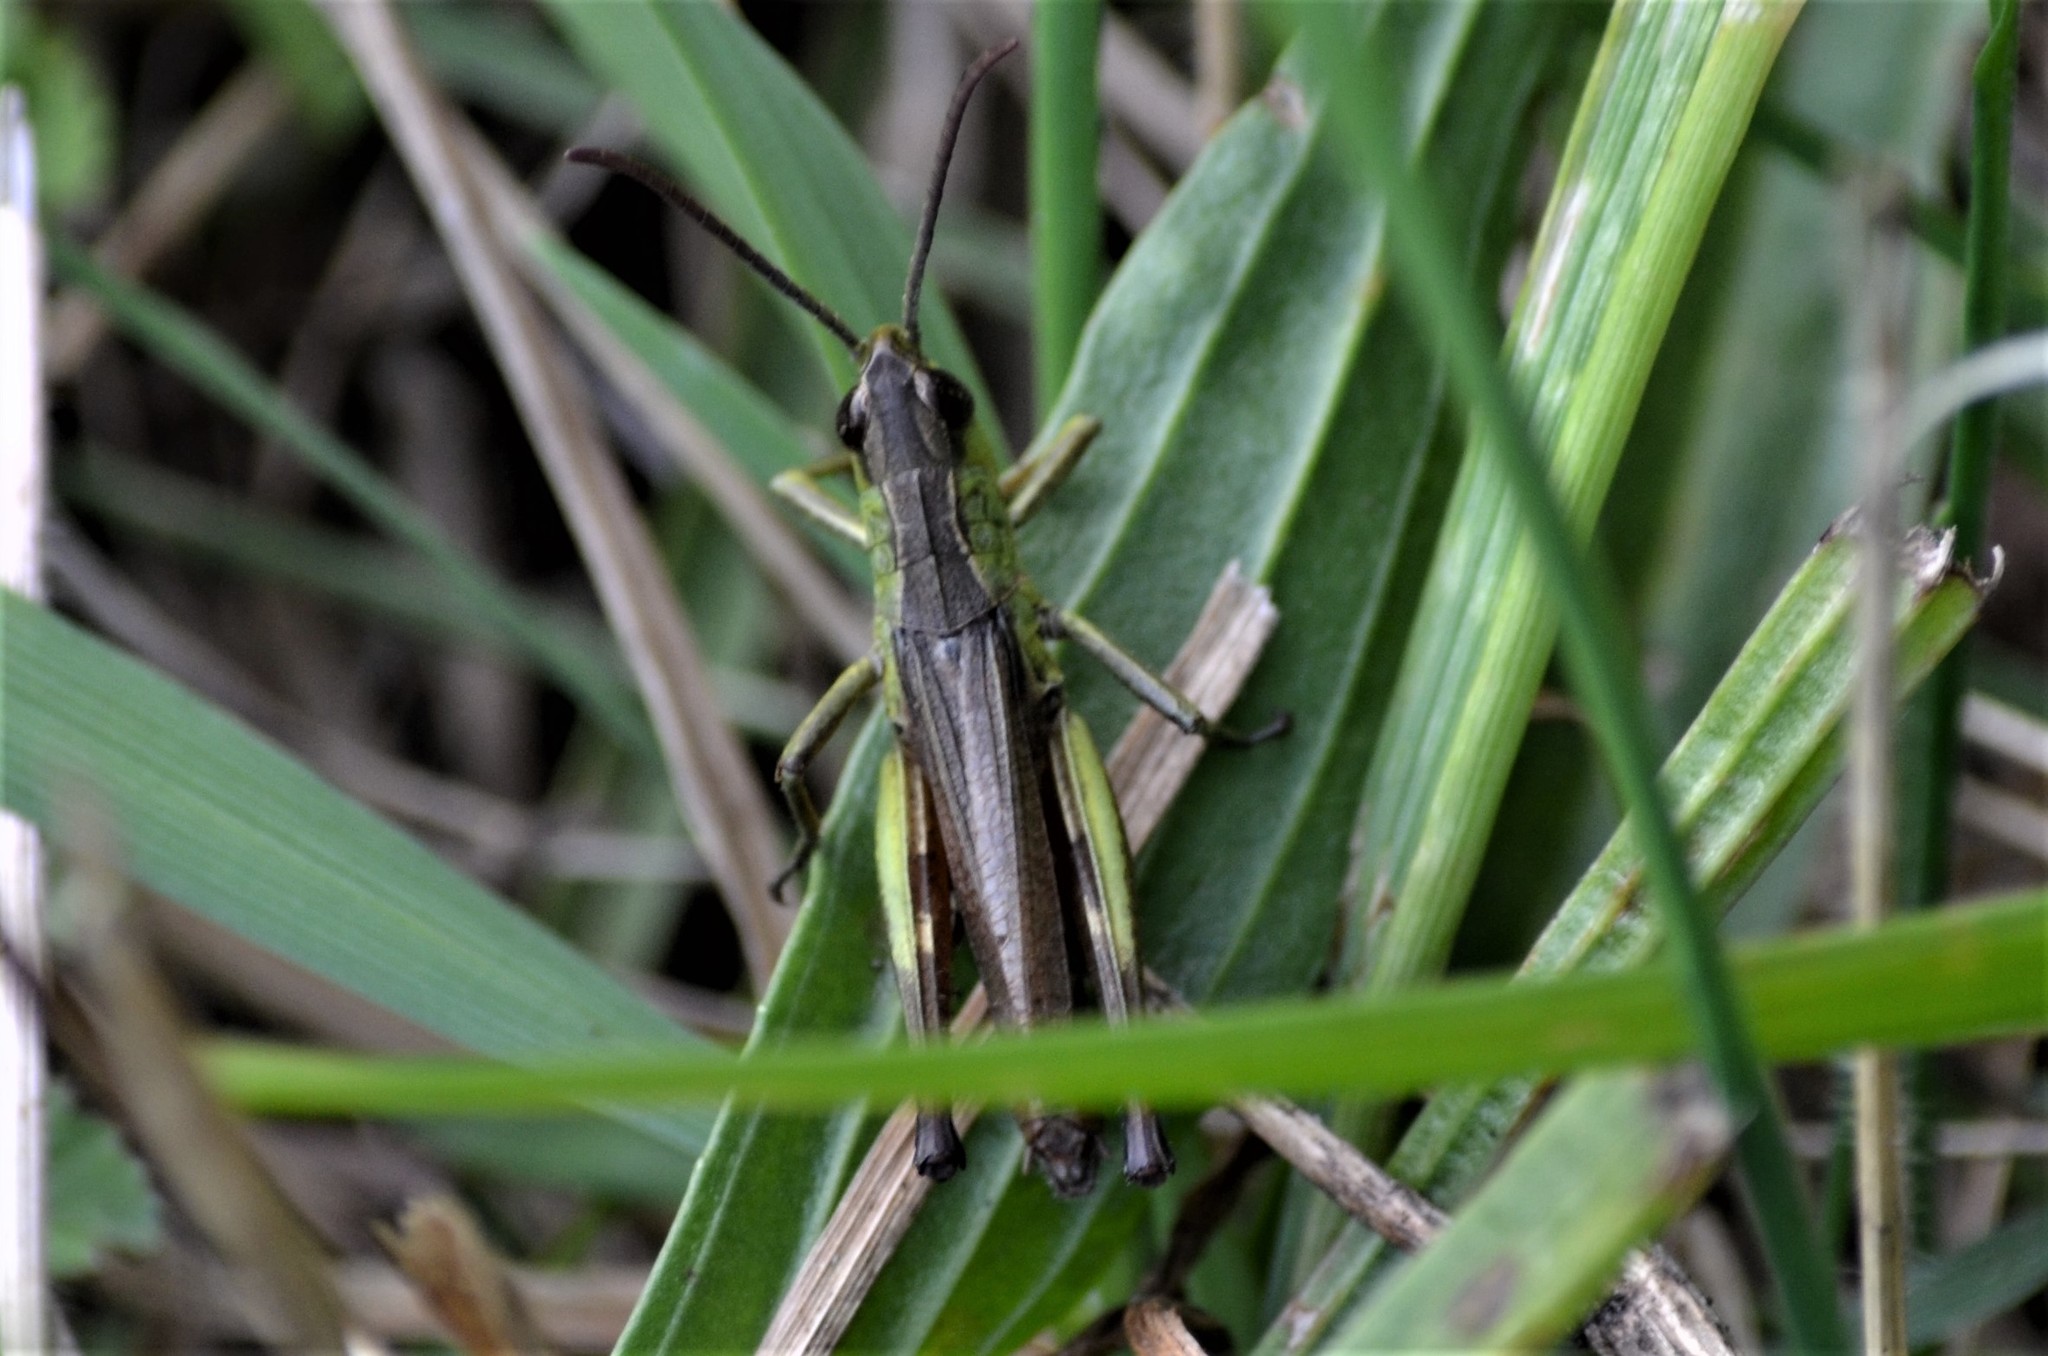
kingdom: Animalia
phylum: Arthropoda
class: Insecta
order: Orthoptera
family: Acrididae
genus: Pseudochorthippus
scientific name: Pseudochorthippus parallelus
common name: Meadow grasshopper
